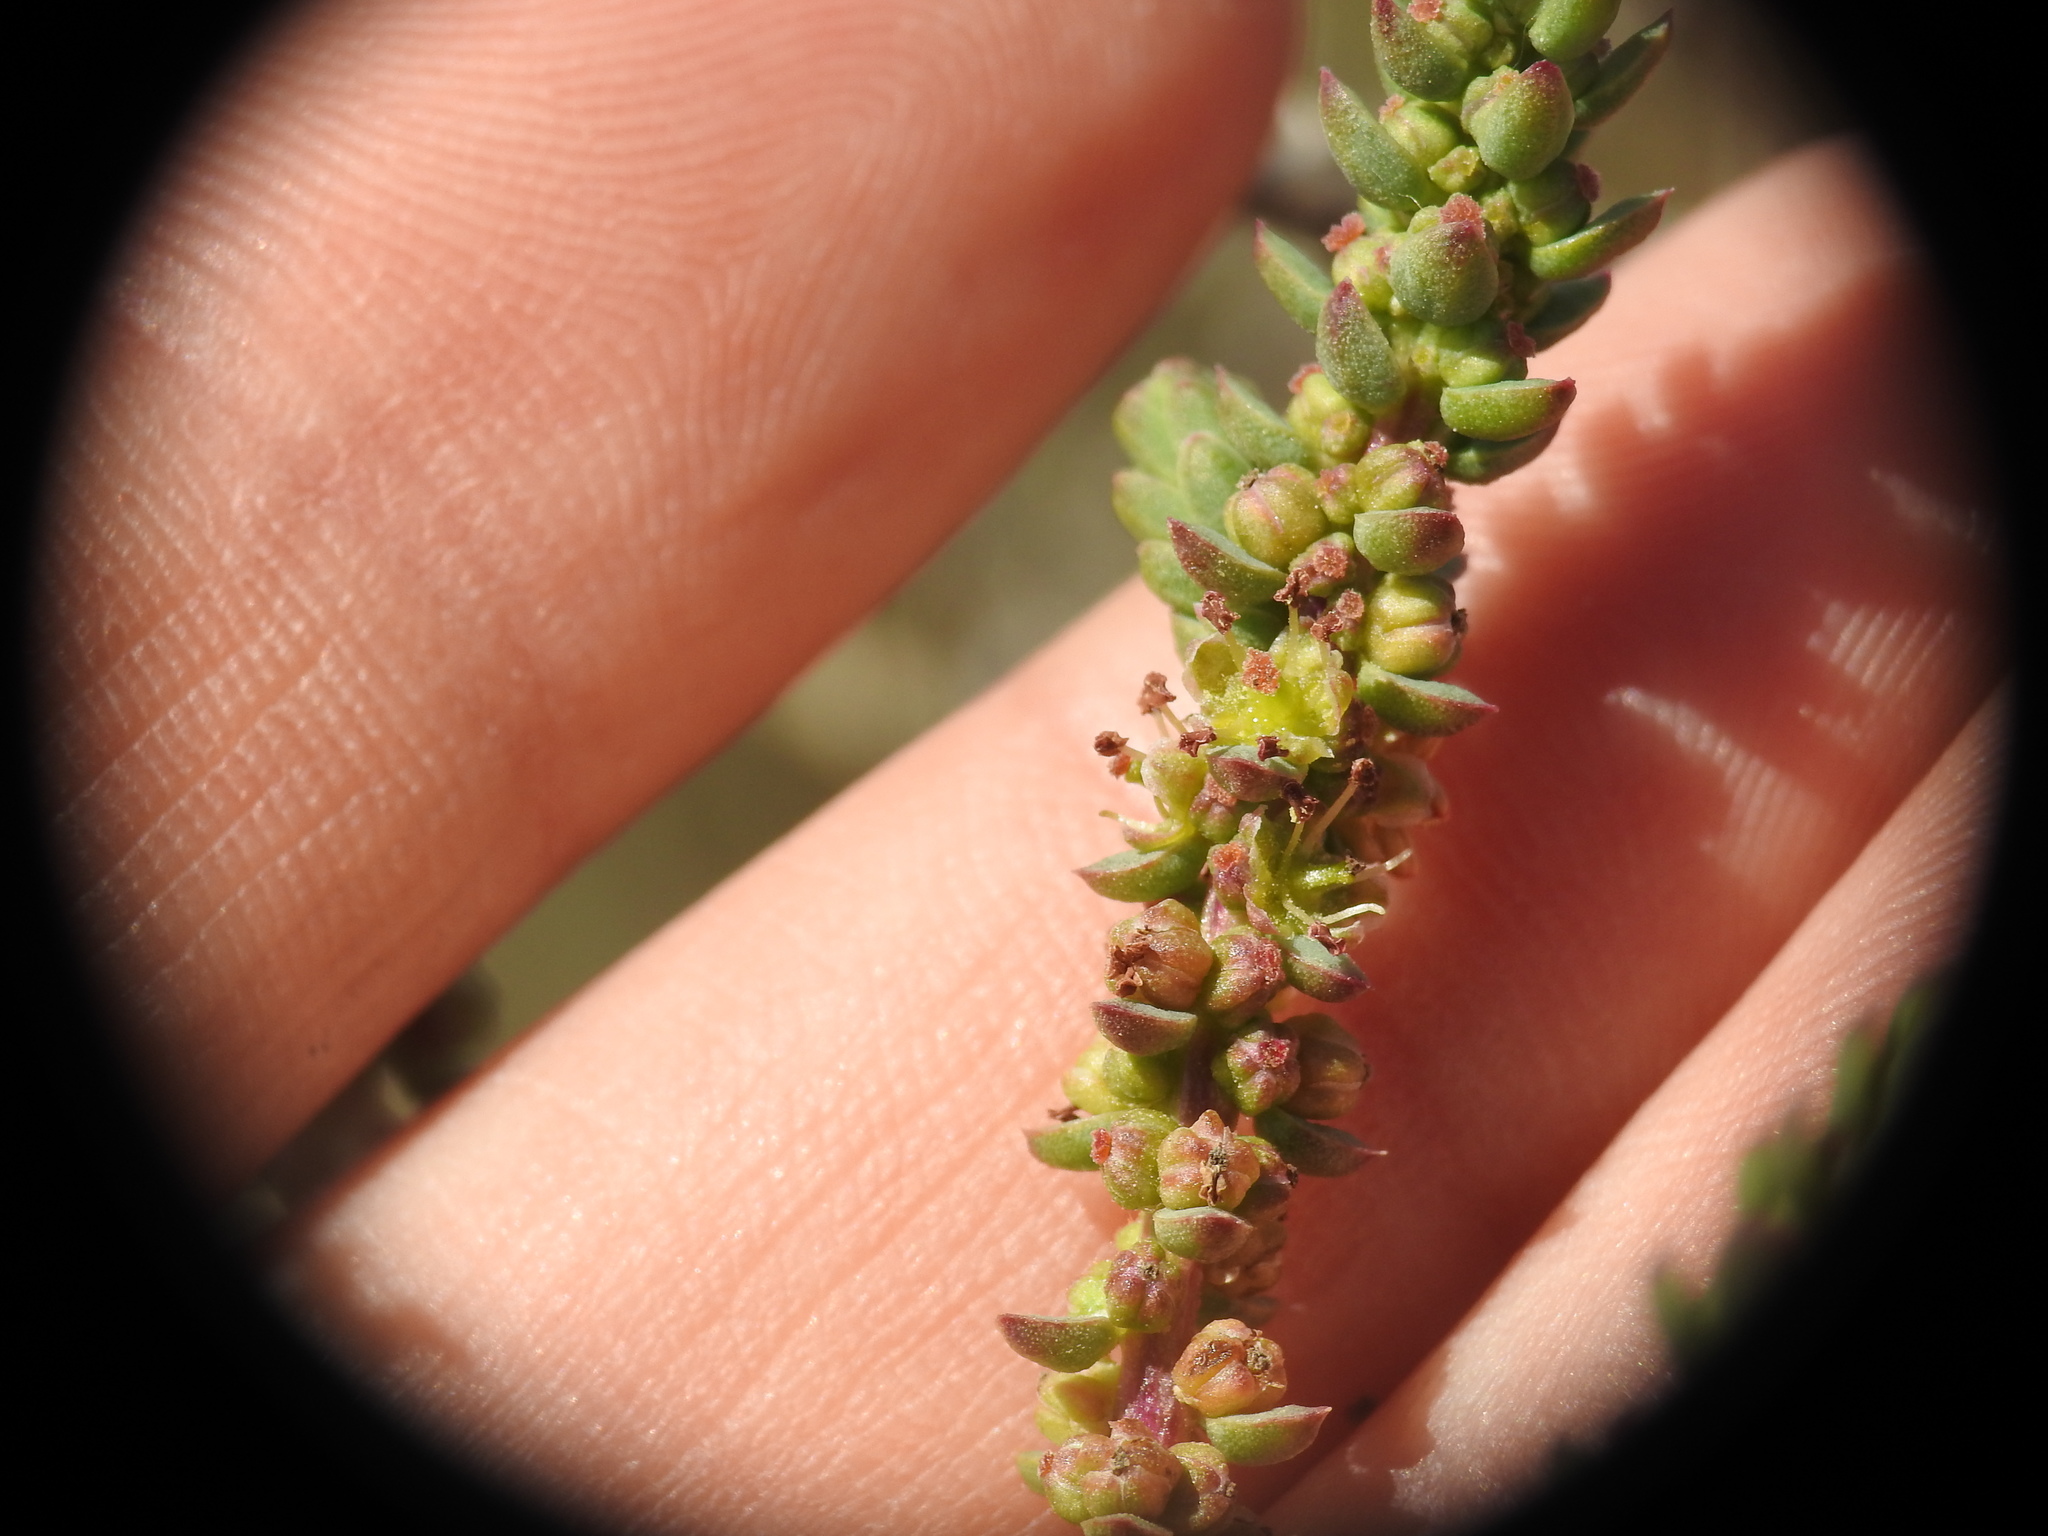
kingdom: Plantae
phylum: Tracheophyta
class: Magnoliopsida
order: Caryophyllales
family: Amaranthaceae
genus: Suaeda
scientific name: Suaeda vera
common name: Shrubby sea-blite
